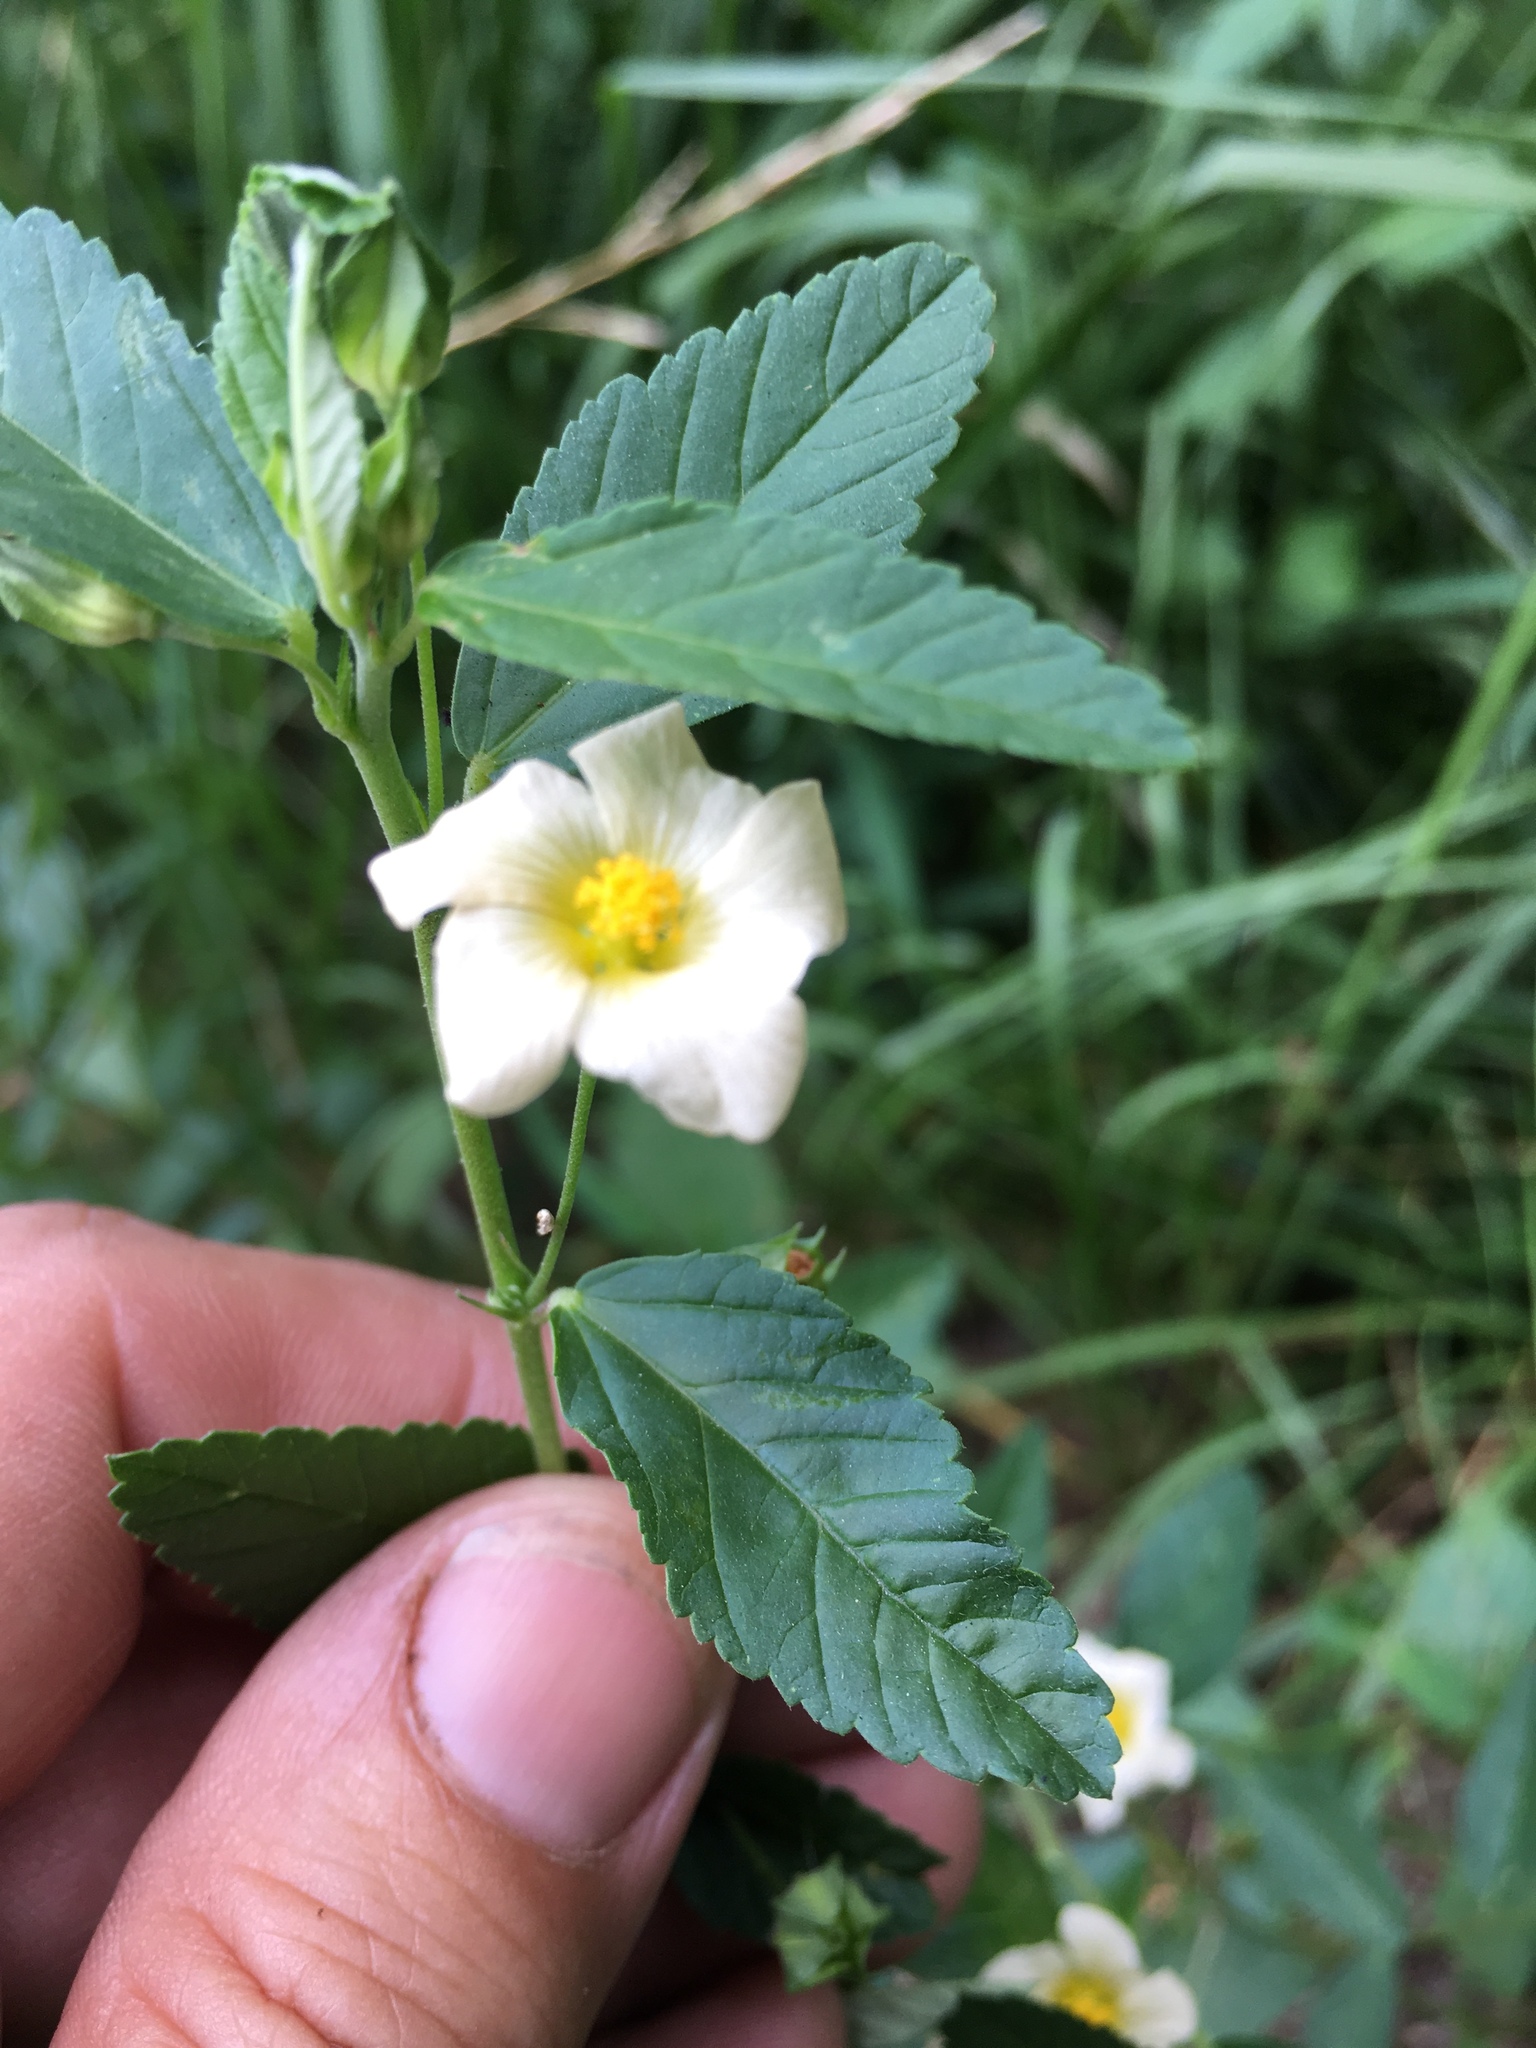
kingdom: Plantae
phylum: Tracheophyta
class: Magnoliopsida
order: Malvales
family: Malvaceae
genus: Sida
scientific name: Sida rhombifolia
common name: Queensland-hemp
